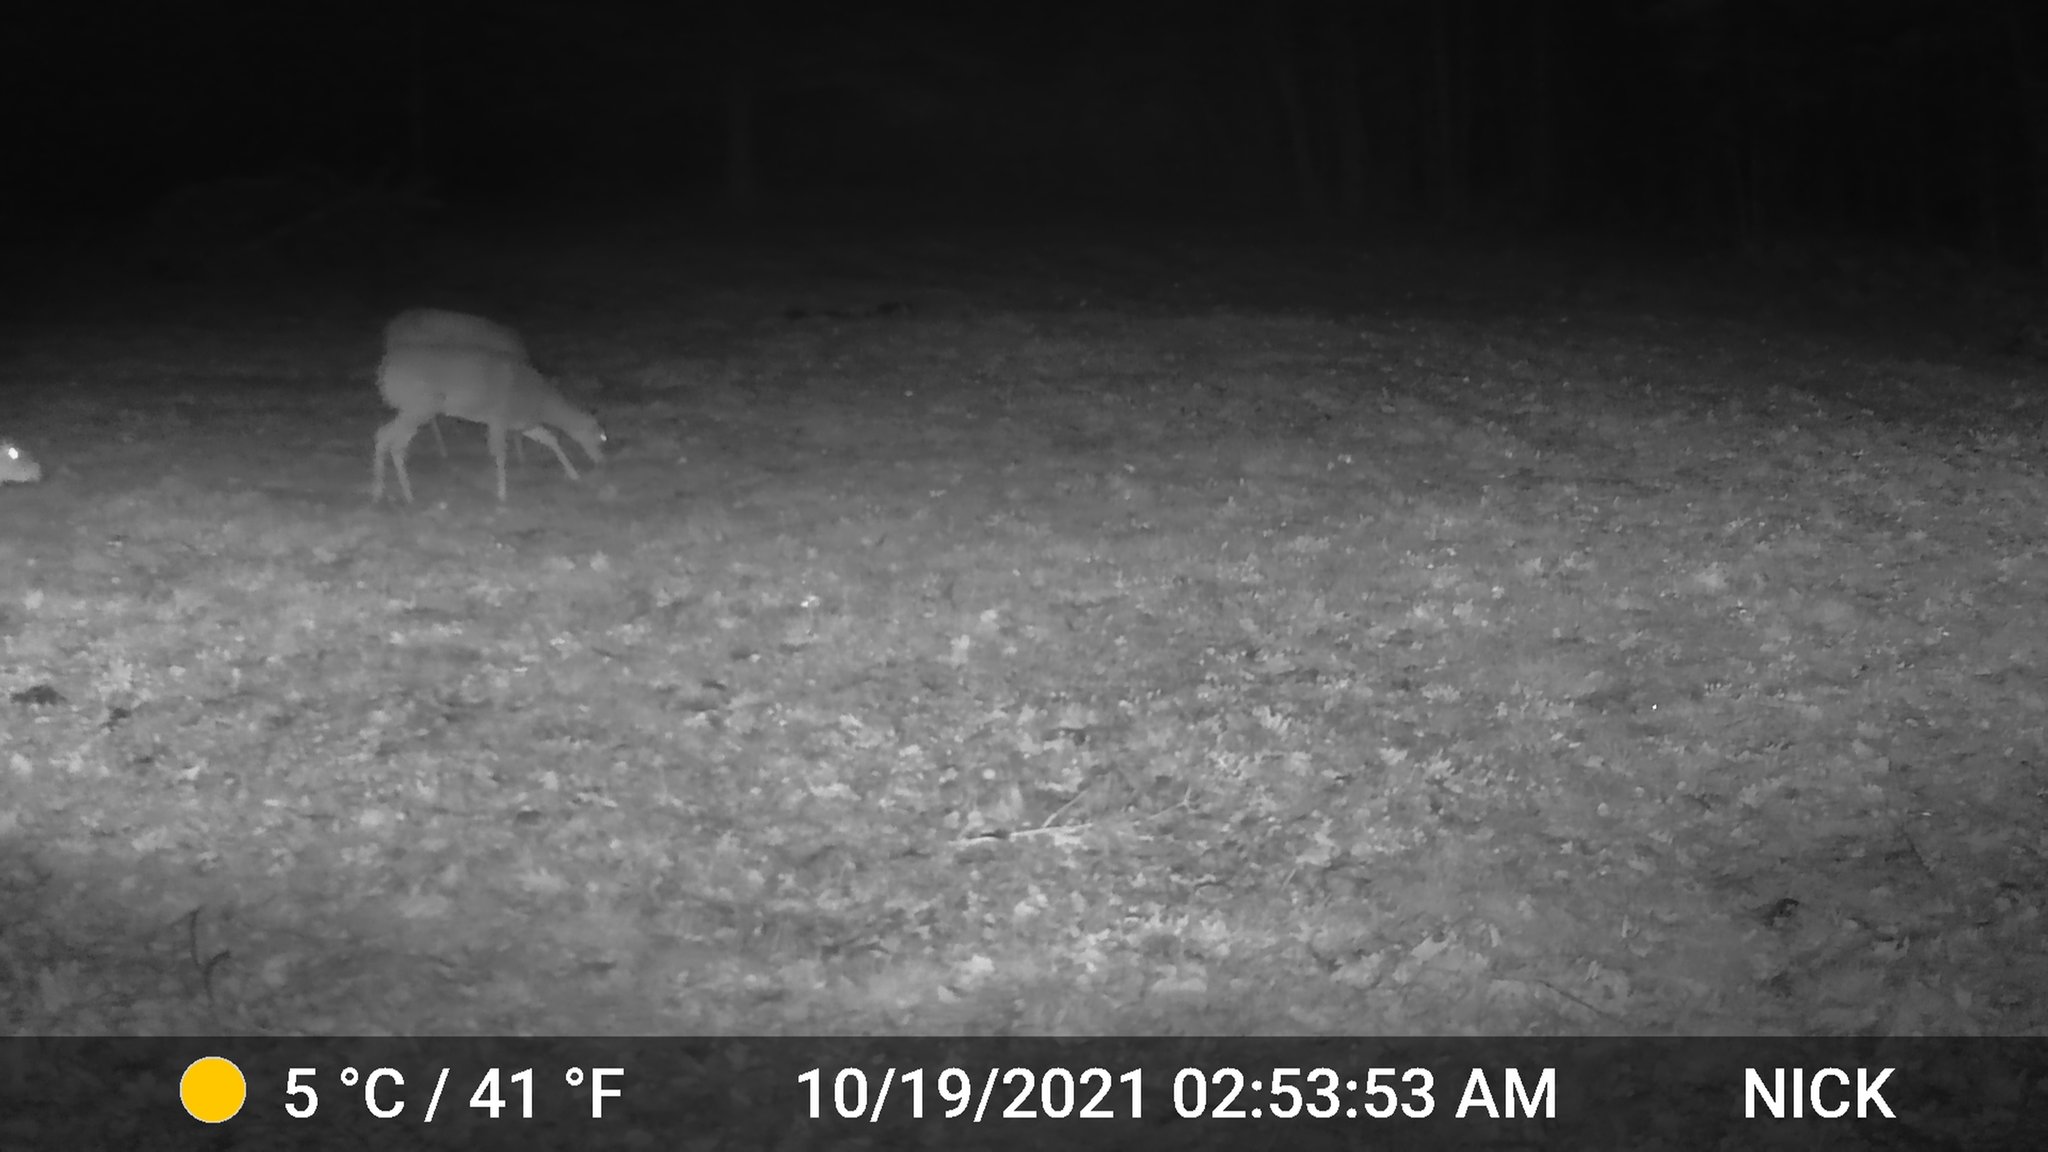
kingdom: Animalia
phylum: Chordata
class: Mammalia
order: Artiodactyla
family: Cervidae
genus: Odocoileus
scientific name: Odocoileus virginianus
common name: White-tailed deer
